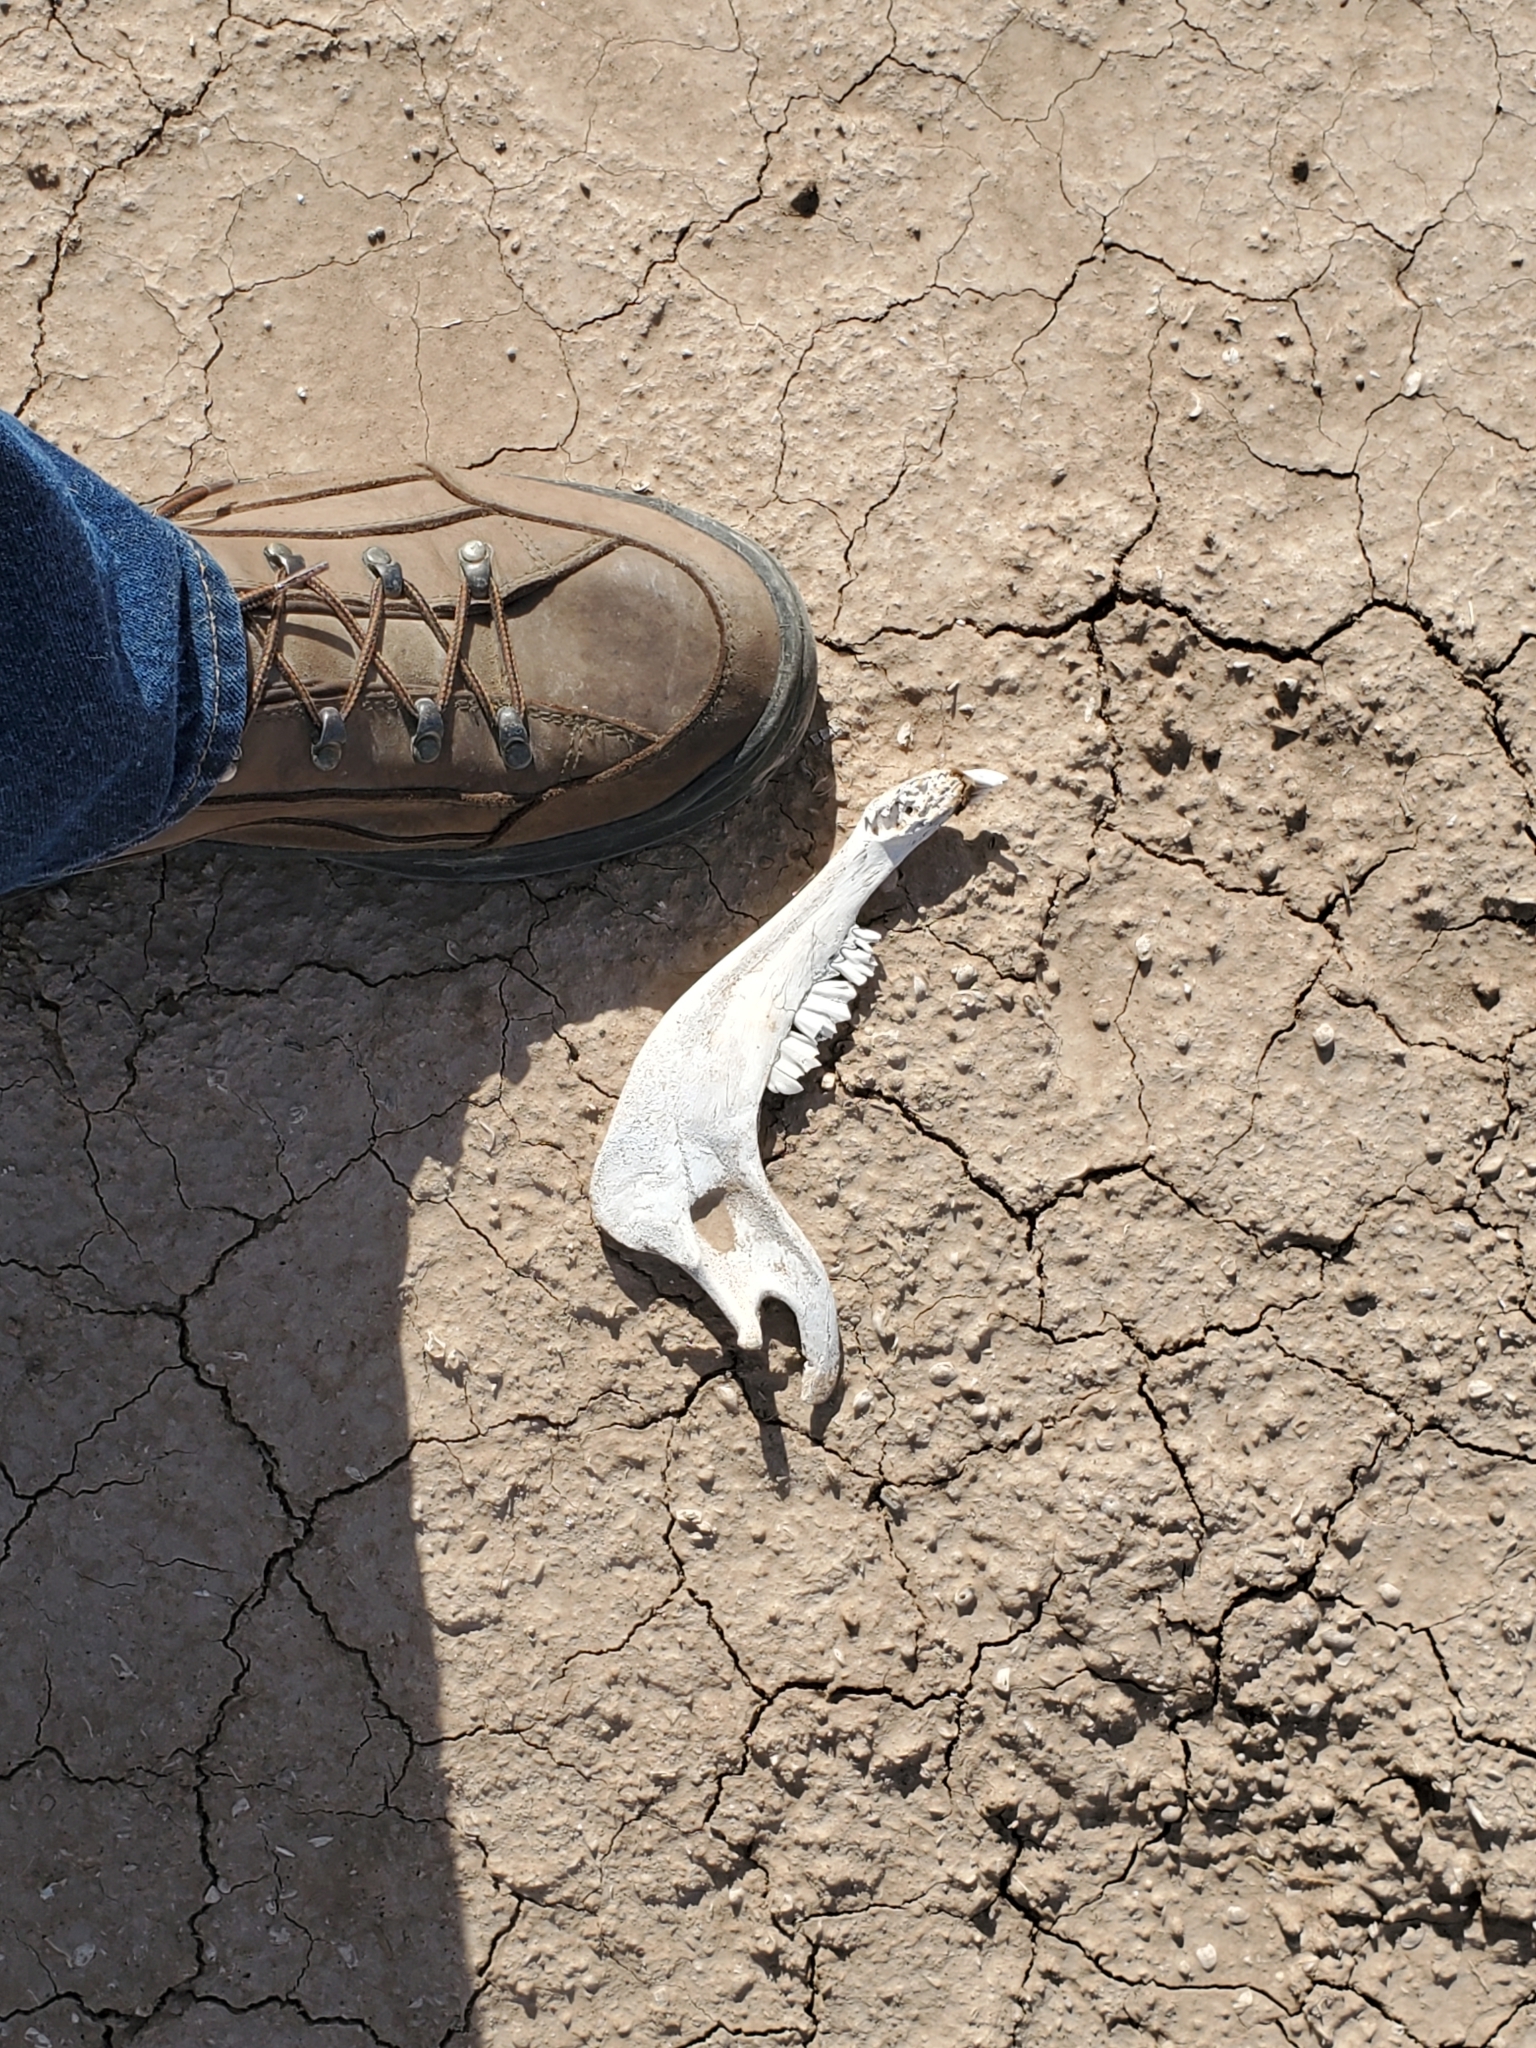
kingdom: Animalia
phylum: Chordata
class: Mammalia
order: Artiodactyla
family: Bovidae
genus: Bos
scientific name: Bos taurus
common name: Domesticated cattle
